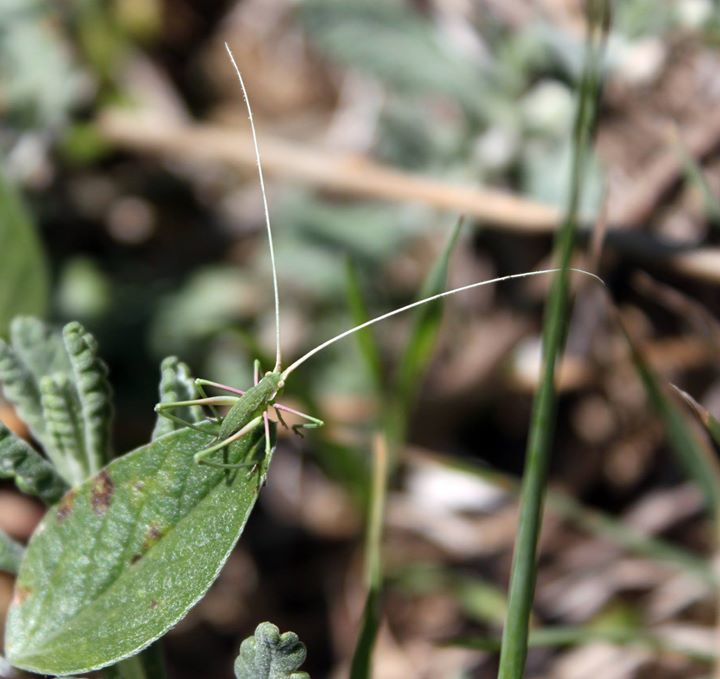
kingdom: Animalia
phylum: Arthropoda
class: Insecta
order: Orthoptera
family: Tettigoniidae
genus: Acrometopa
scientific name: Acrometopa macropoda
